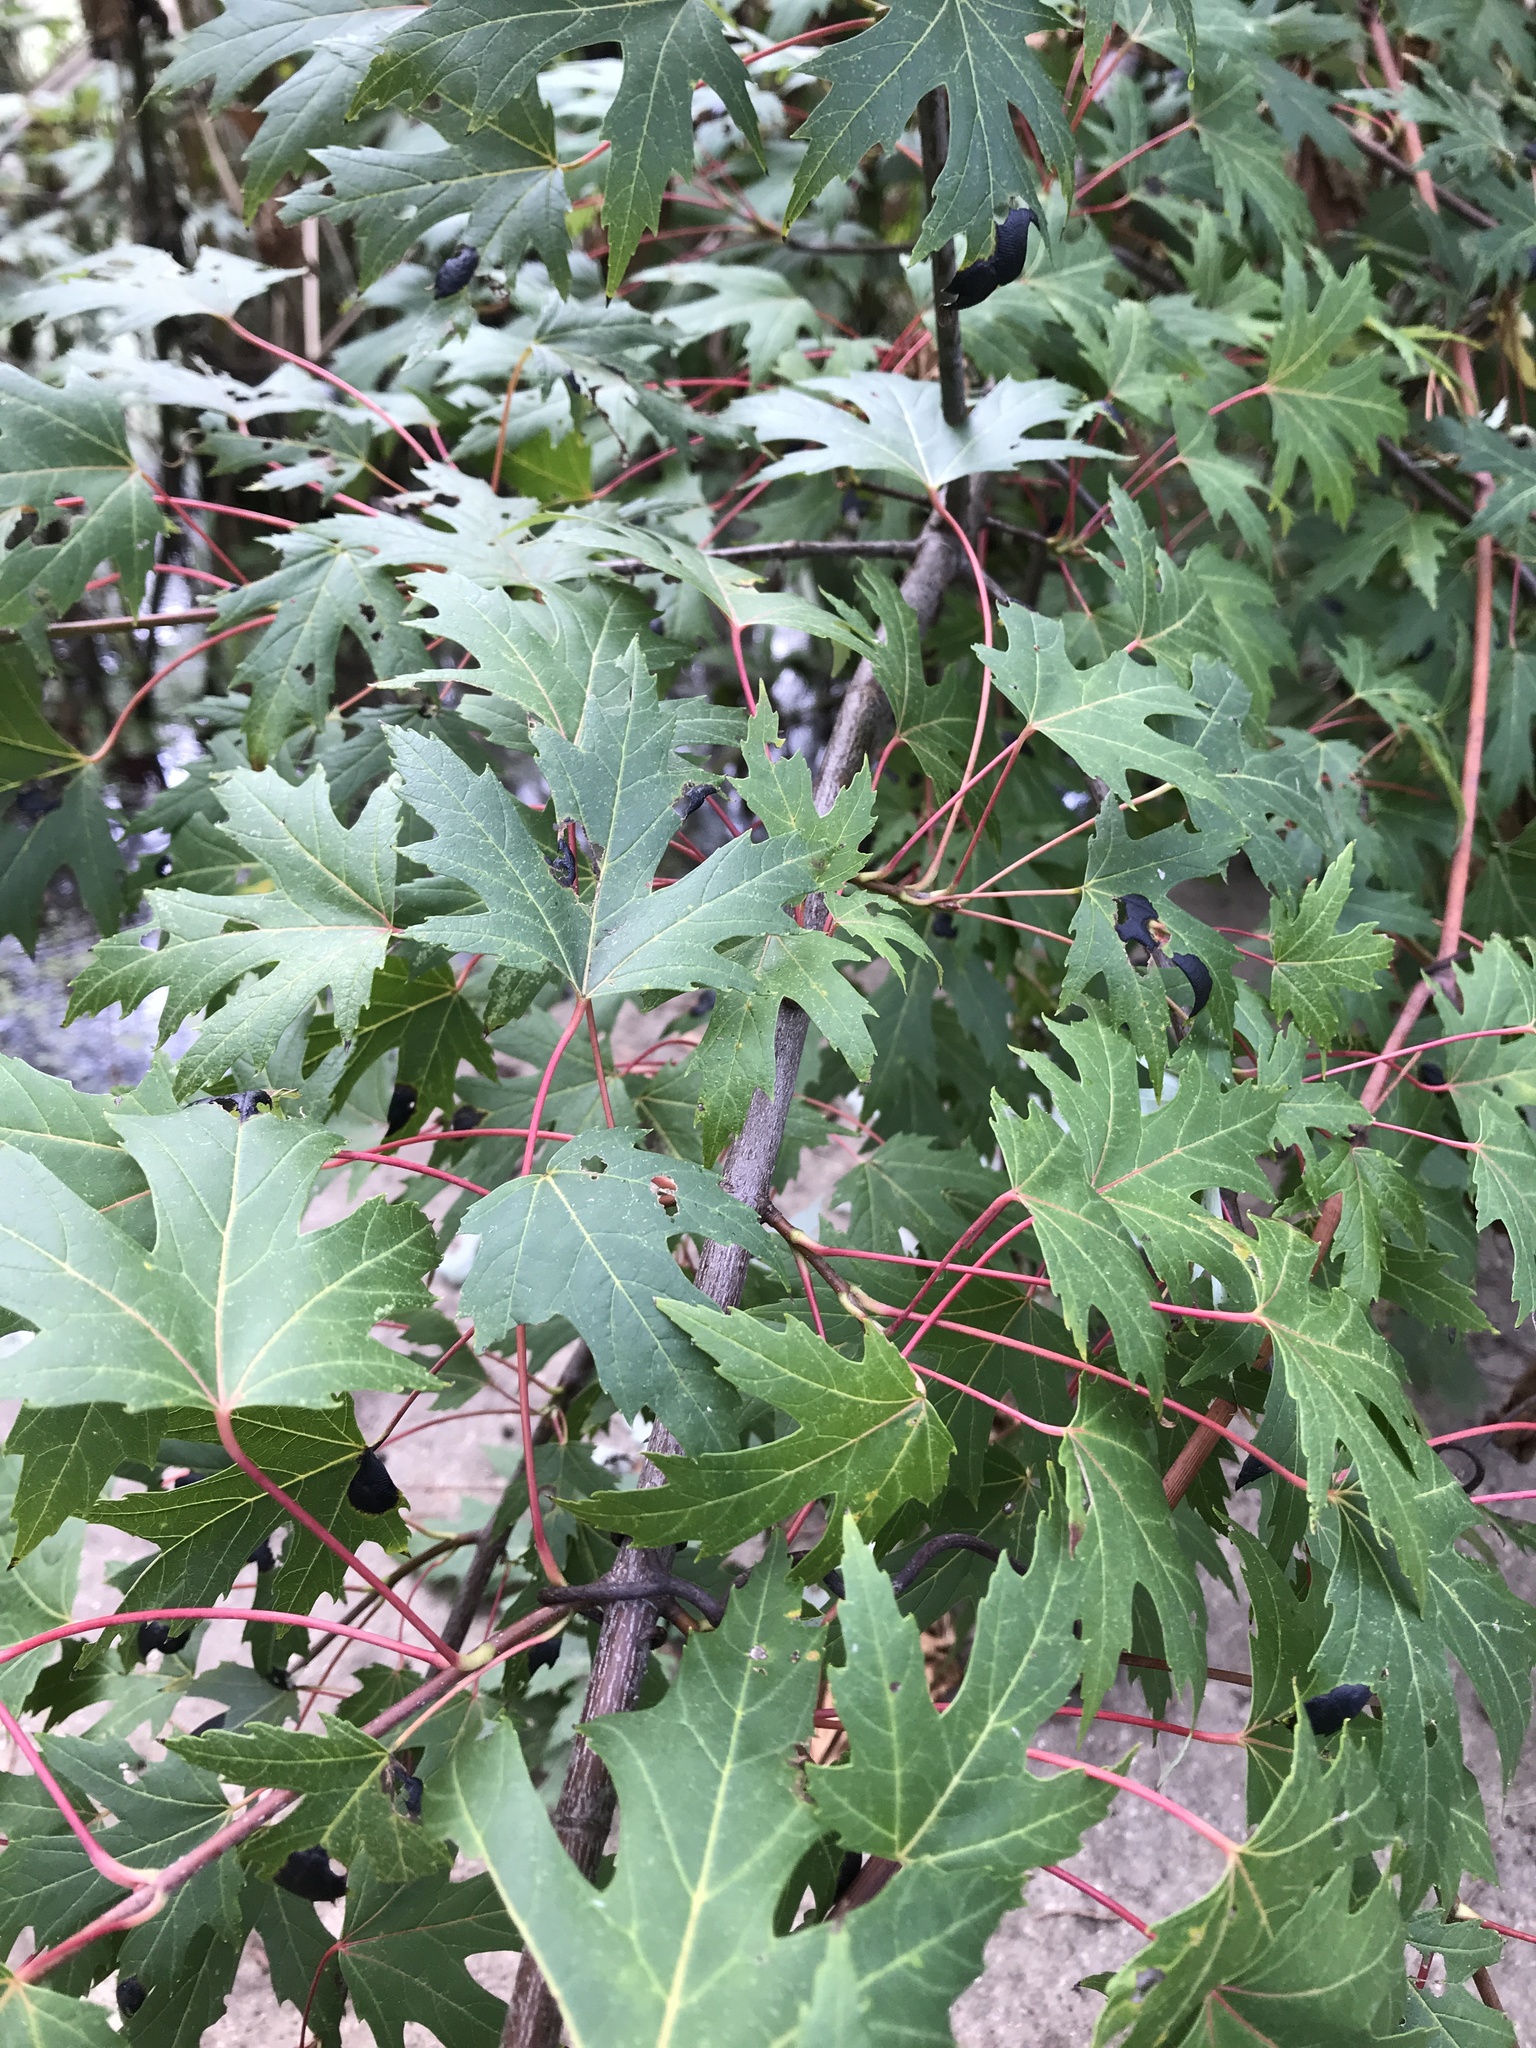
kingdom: Plantae
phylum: Tracheophyta
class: Magnoliopsida
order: Sapindales
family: Sapindaceae
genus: Acer
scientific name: Acer saccharinum
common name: Silver maple
